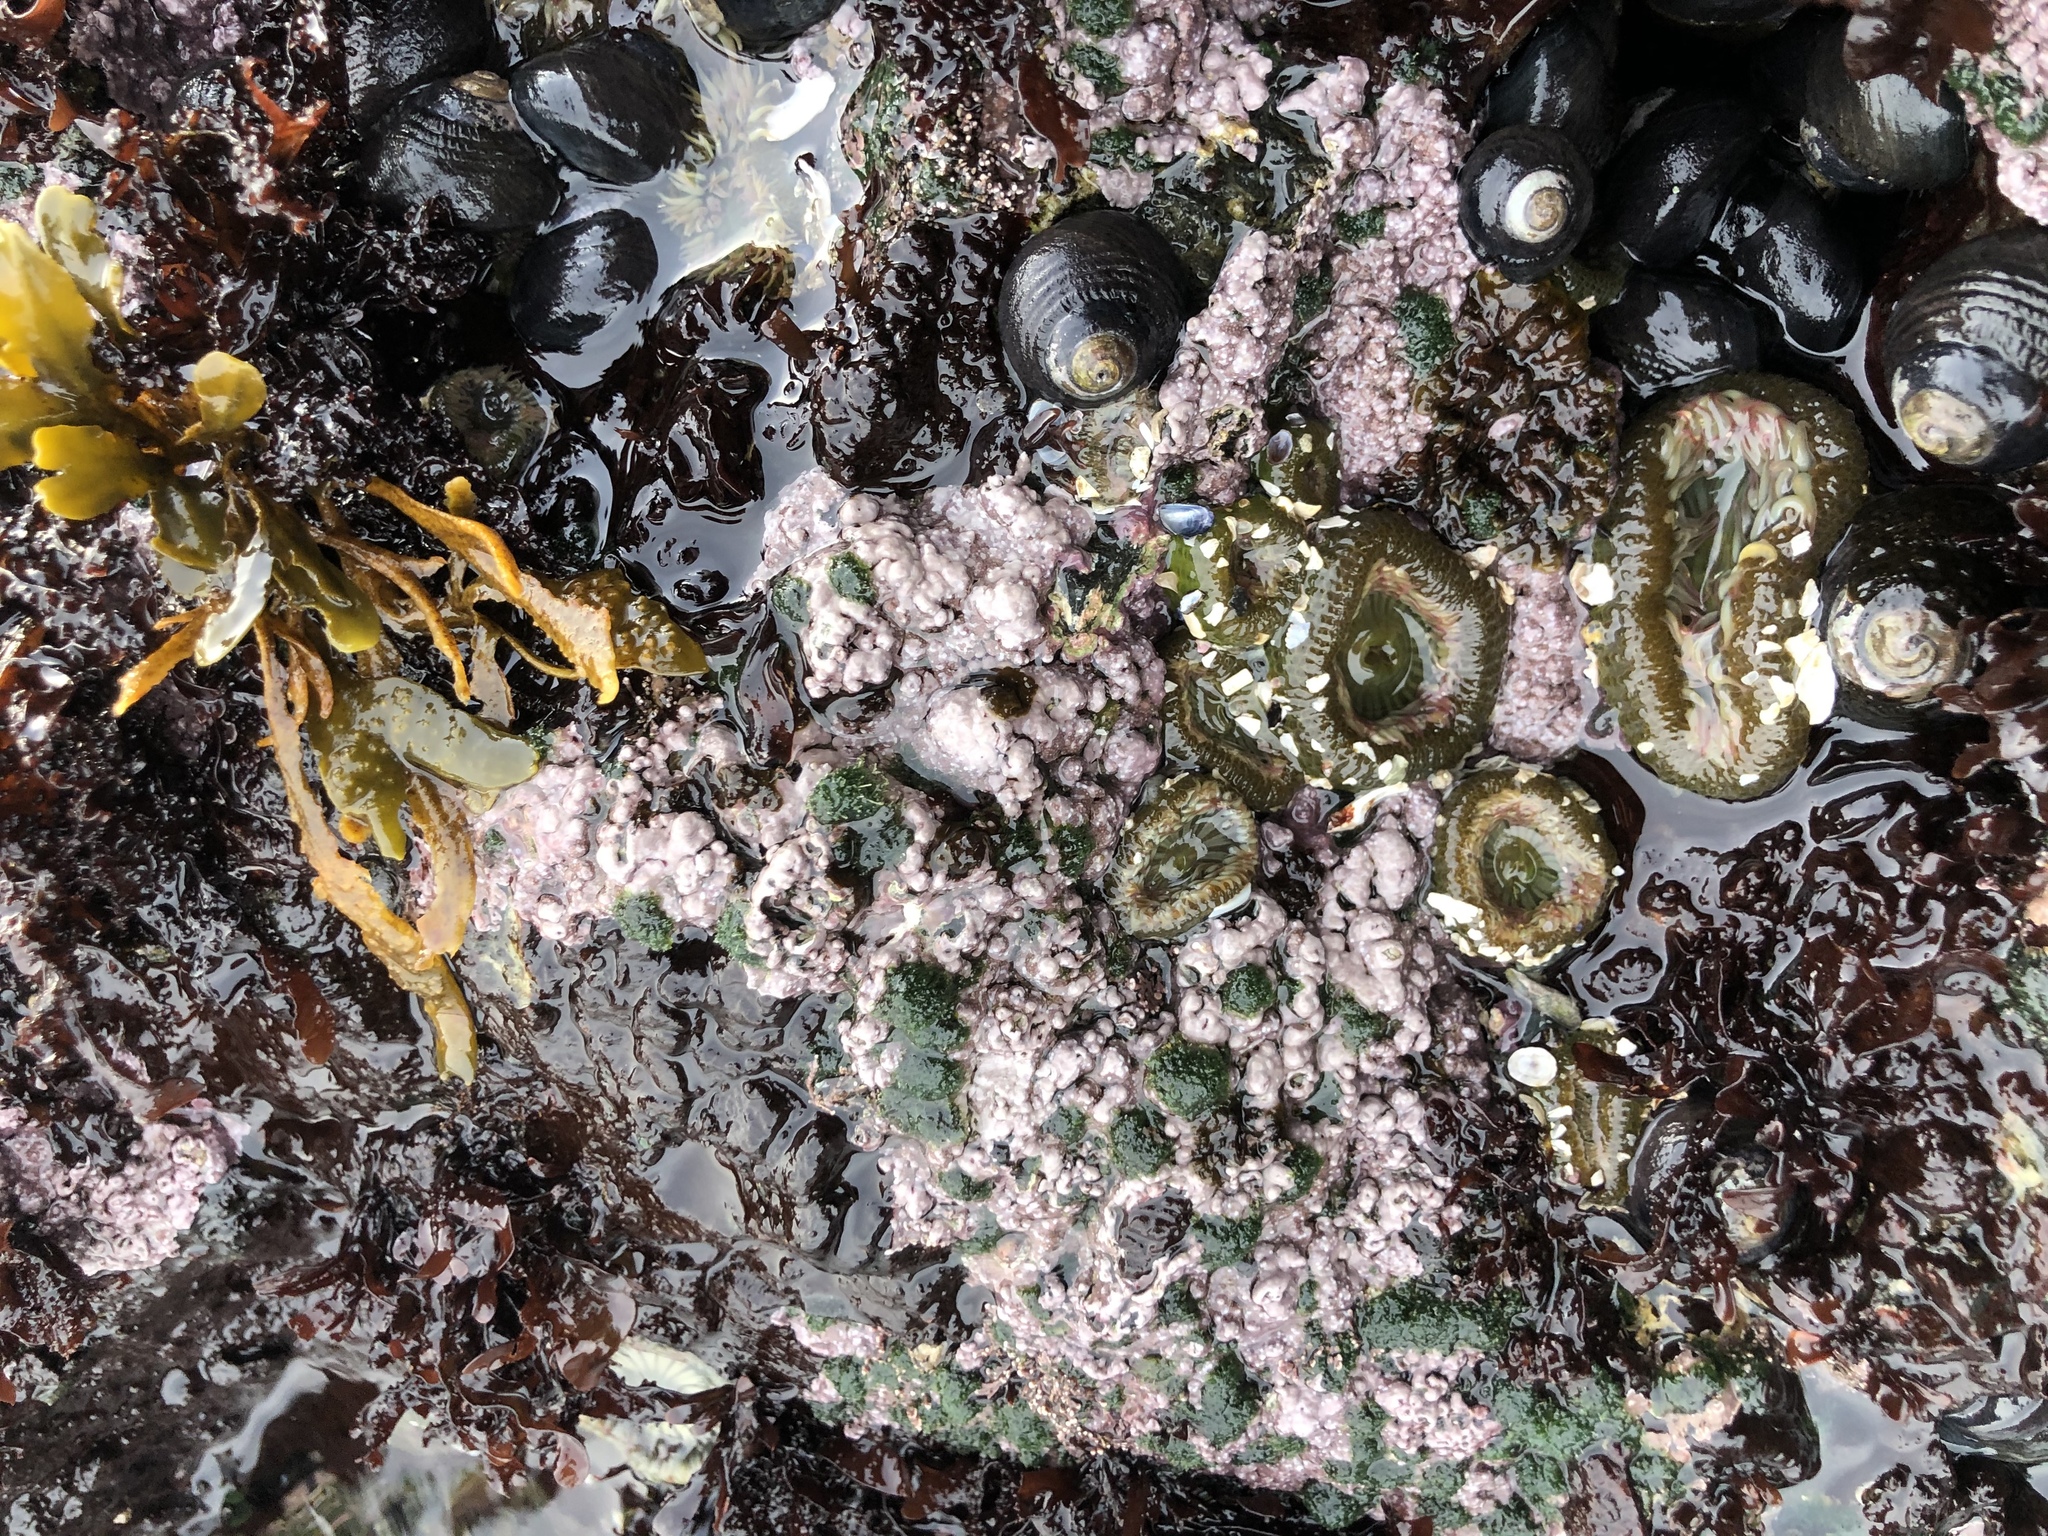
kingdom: Plantae
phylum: Rhodophyta
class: Florideophyceae
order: Corallinales
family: Corallinaceae
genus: Chamberlainium
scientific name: Chamberlainium tumidum
